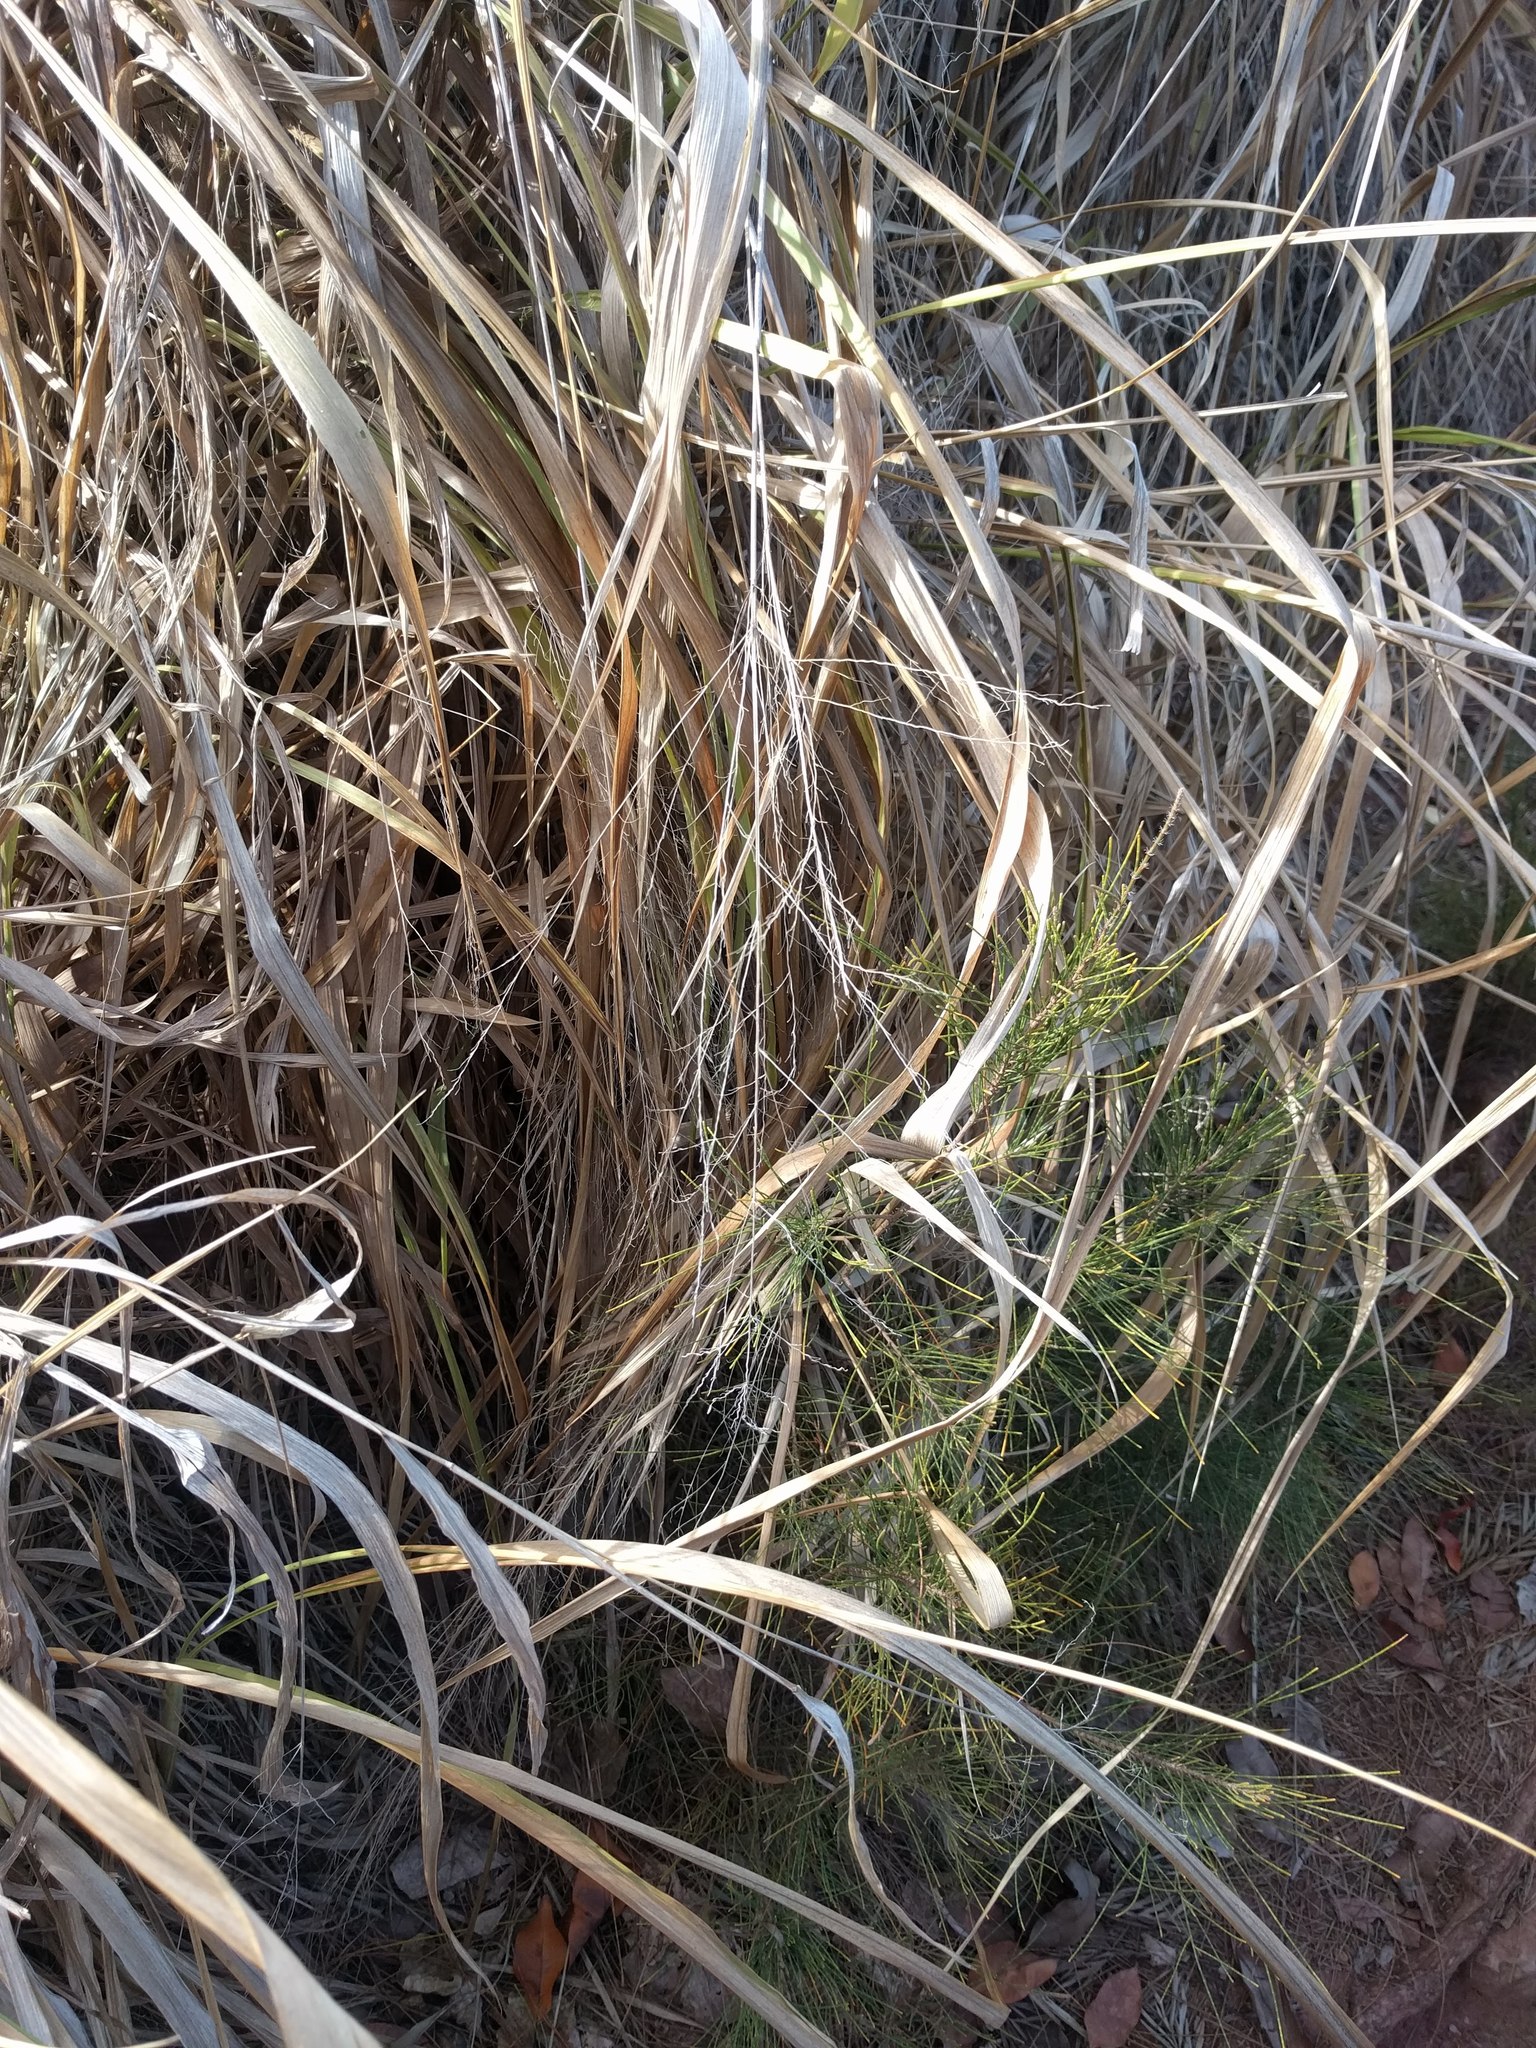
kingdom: Plantae
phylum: Tracheophyta
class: Liliopsida
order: Poales
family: Poaceae
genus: Megathyrsus
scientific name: Megathyrsus maximus
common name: Guineagrass
